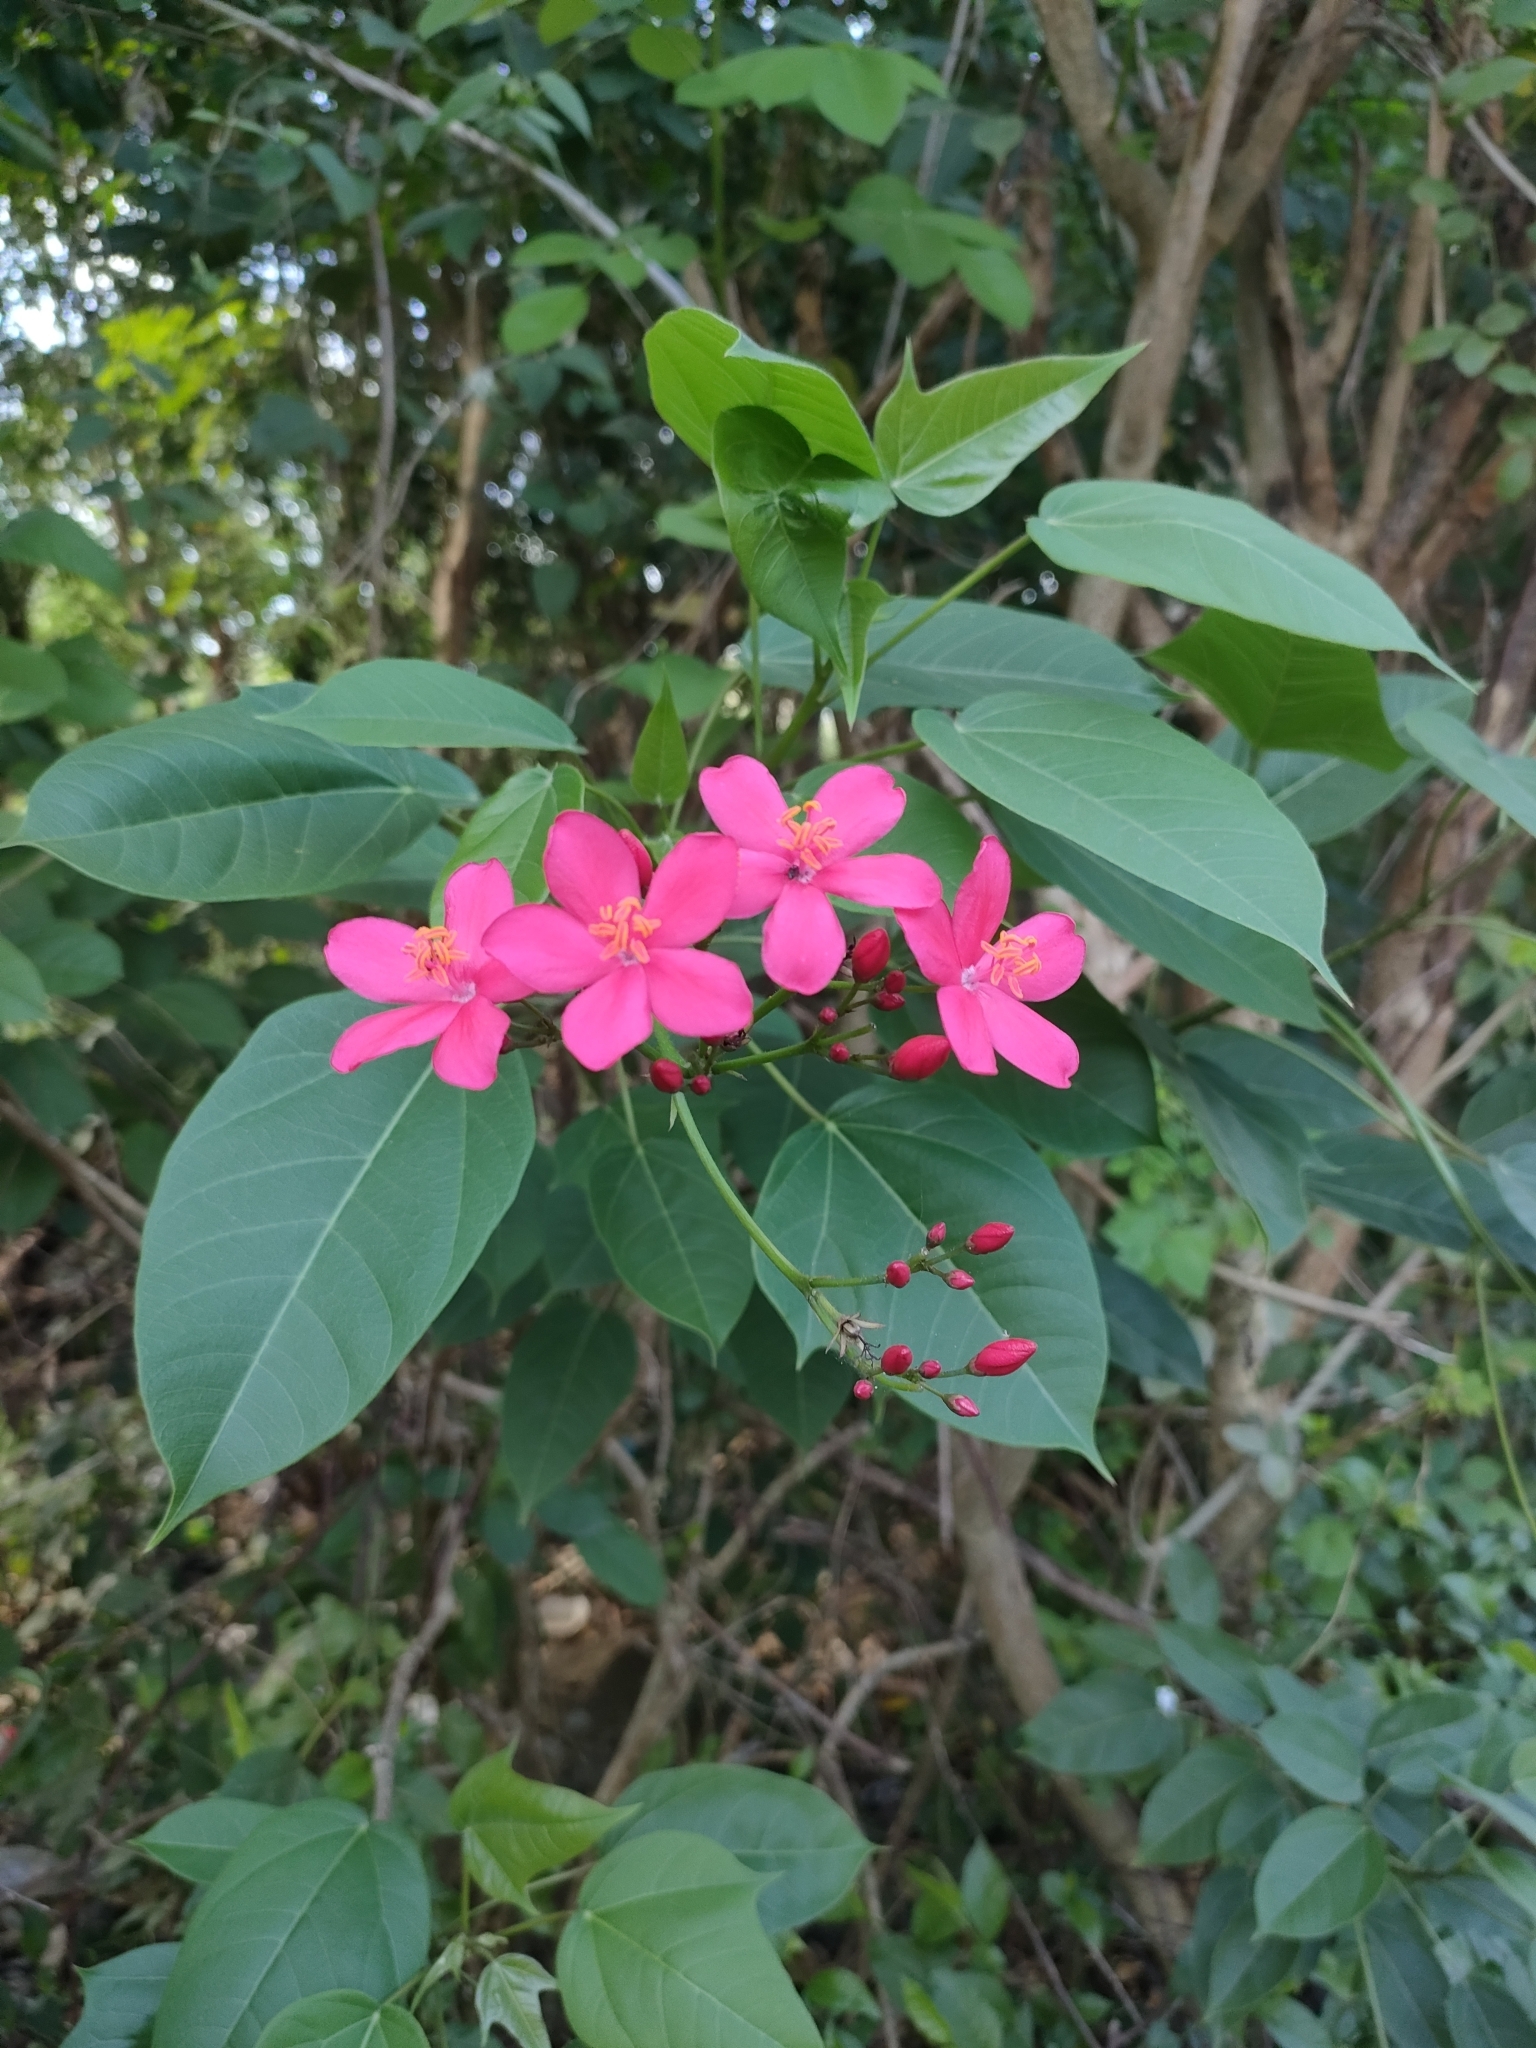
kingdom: Plantae
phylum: Tracheophyta
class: Magnoliopsida
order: Malpighiales
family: Euphorbiaceae
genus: Jatropha
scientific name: Jatropha integerrima
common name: Peregrina
